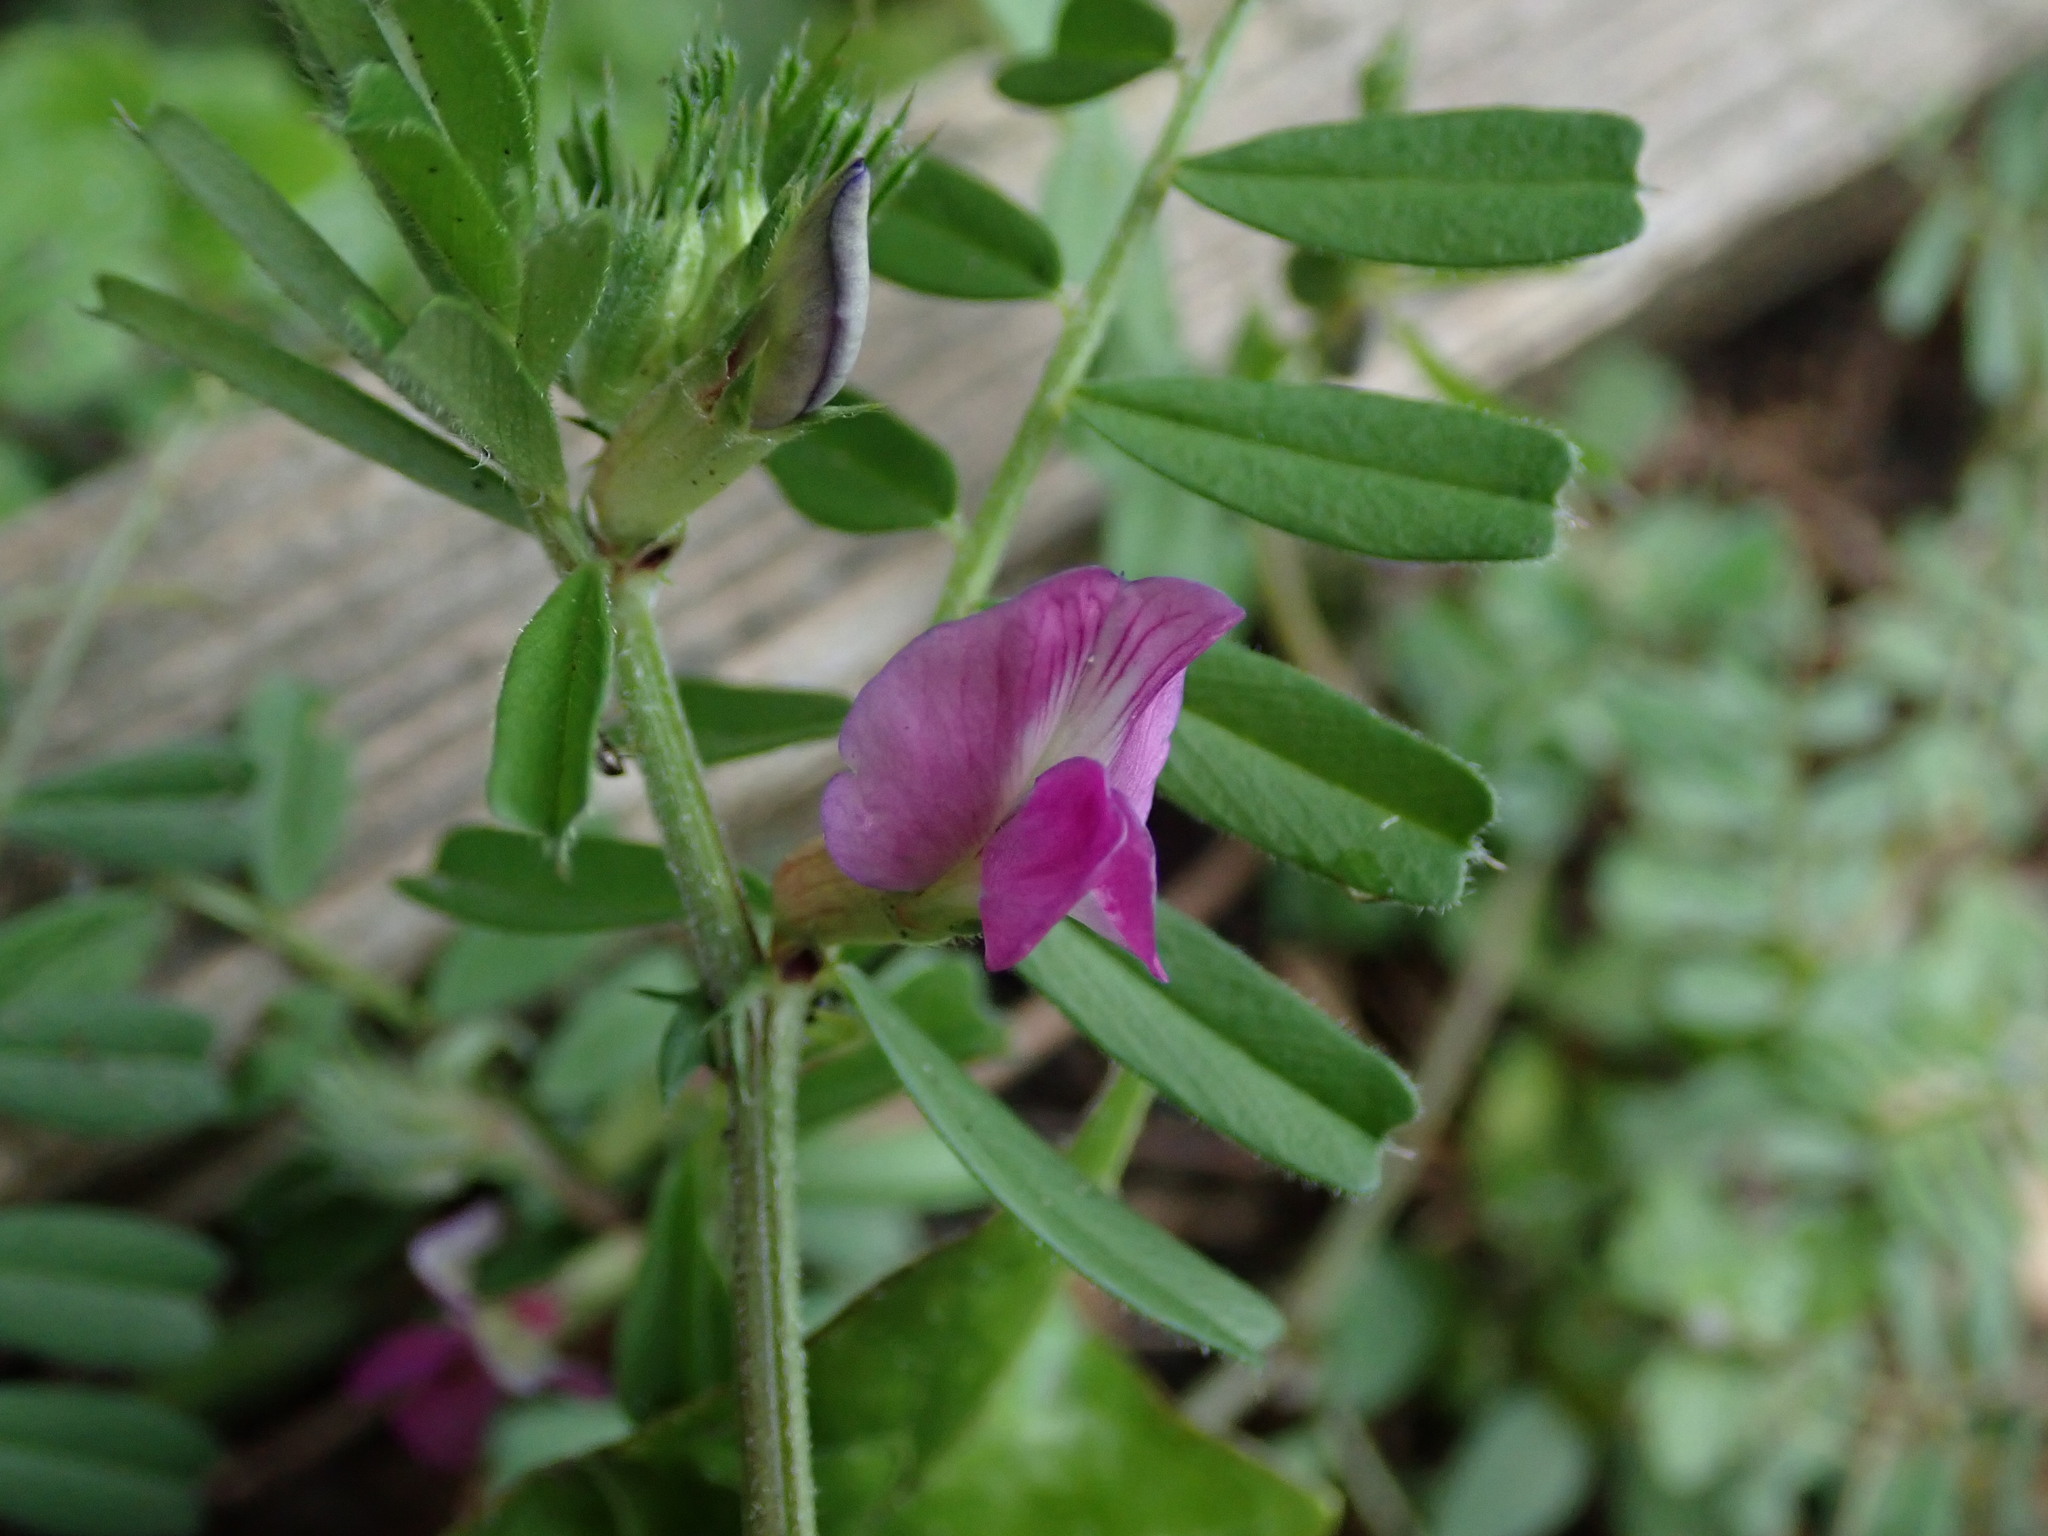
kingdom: Plantae
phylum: Tracheophyta
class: Magnoliopsida
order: Fabales
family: Fabaceae
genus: Vicia
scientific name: Vicia sativa
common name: Garden vetch
